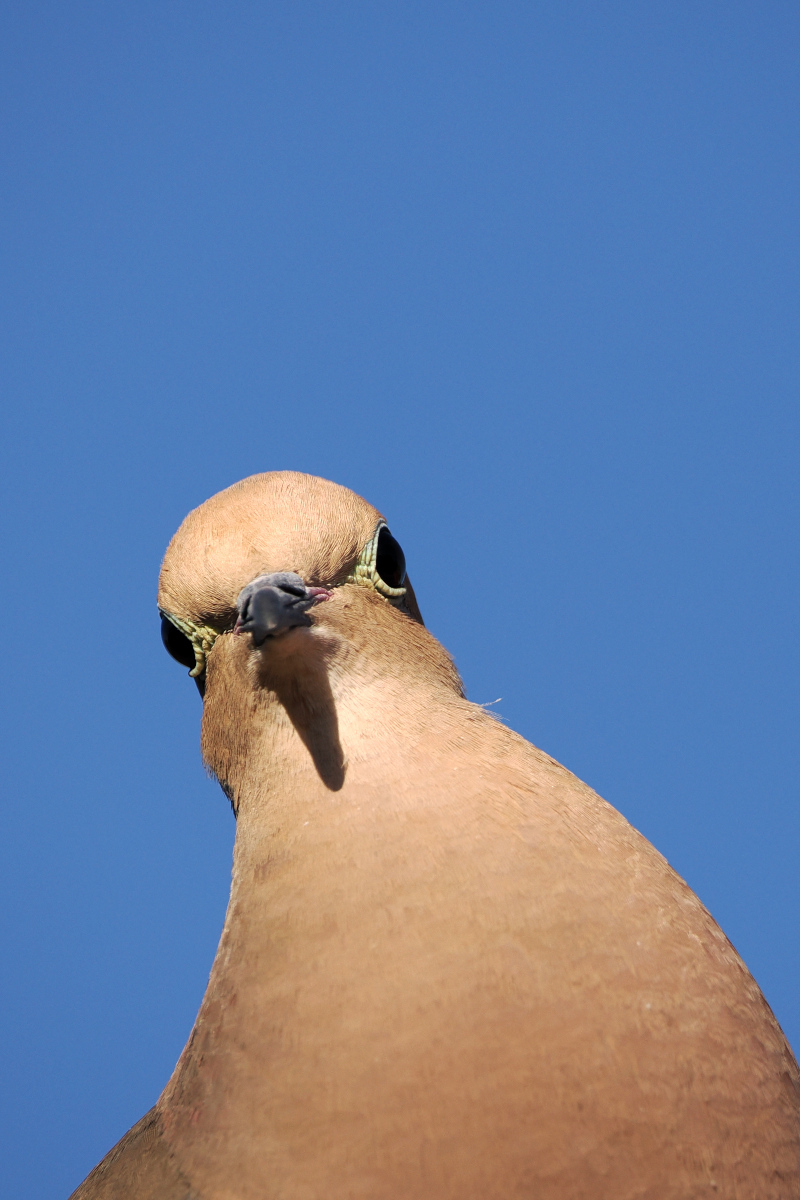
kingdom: Animalia
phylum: Chordata
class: Aves
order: Columbiformes
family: Columbidae
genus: Zenaida
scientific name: Zenaida macroura
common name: Mourning dove
